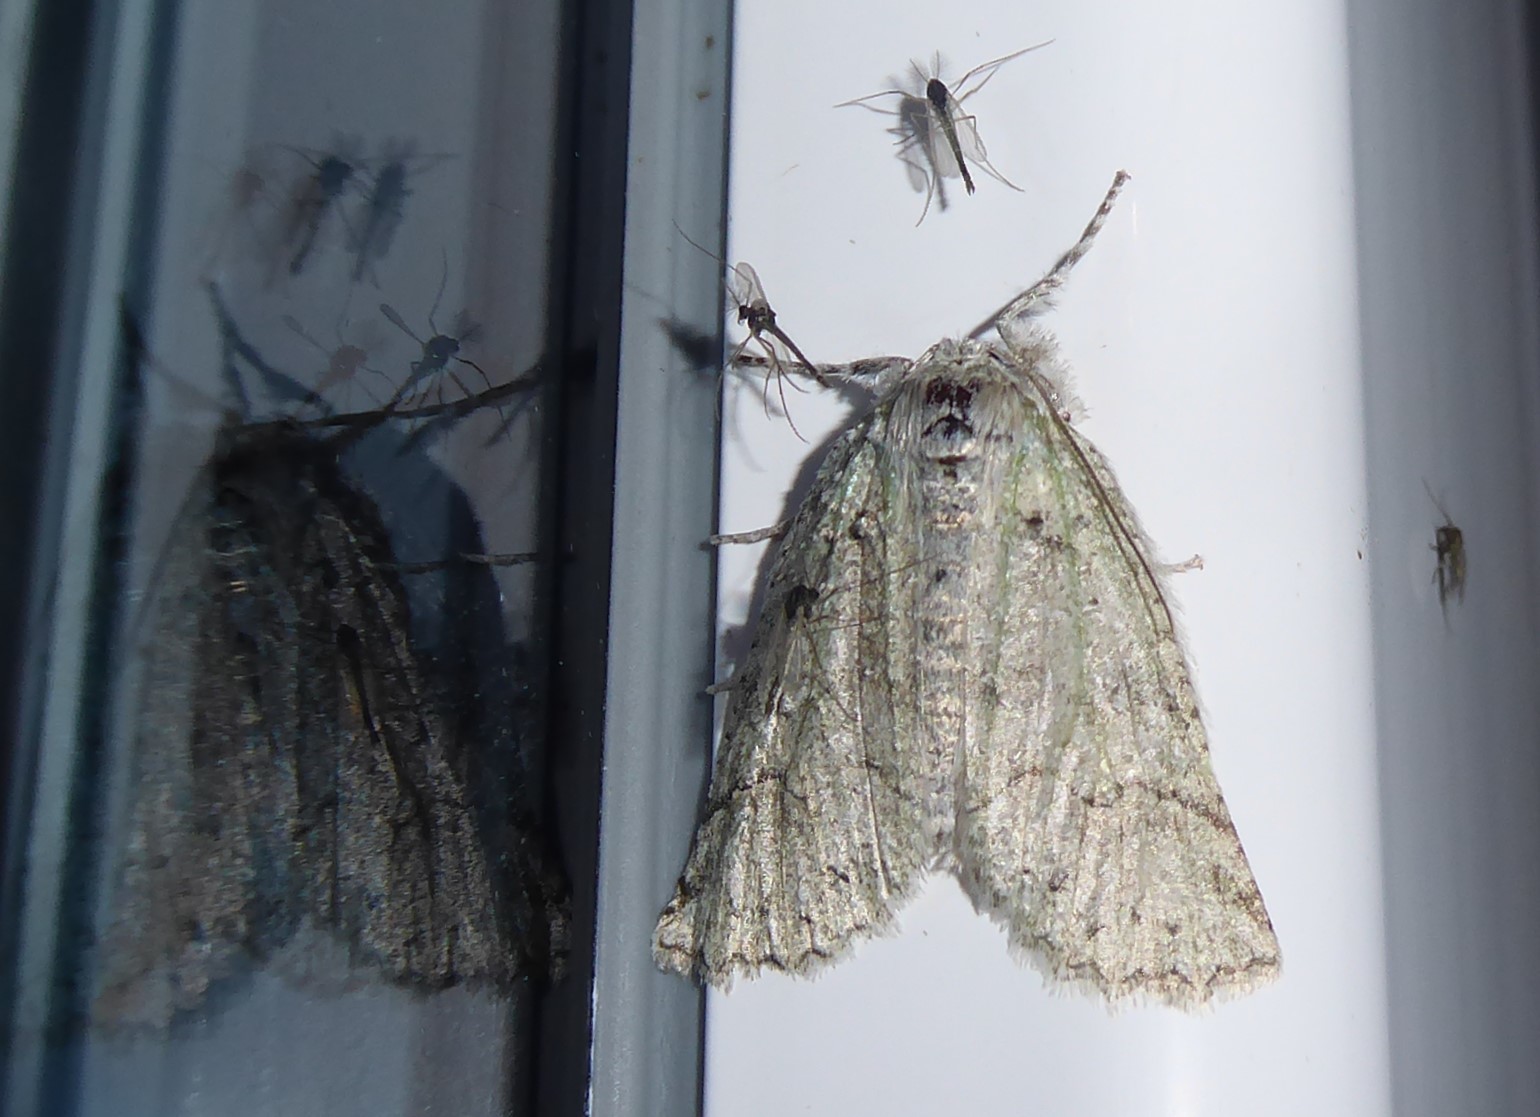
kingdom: Animalia
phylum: Arthropoda
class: Insecta
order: Lepidoptera
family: Geometridae
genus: Declana
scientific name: Declana floccosa
